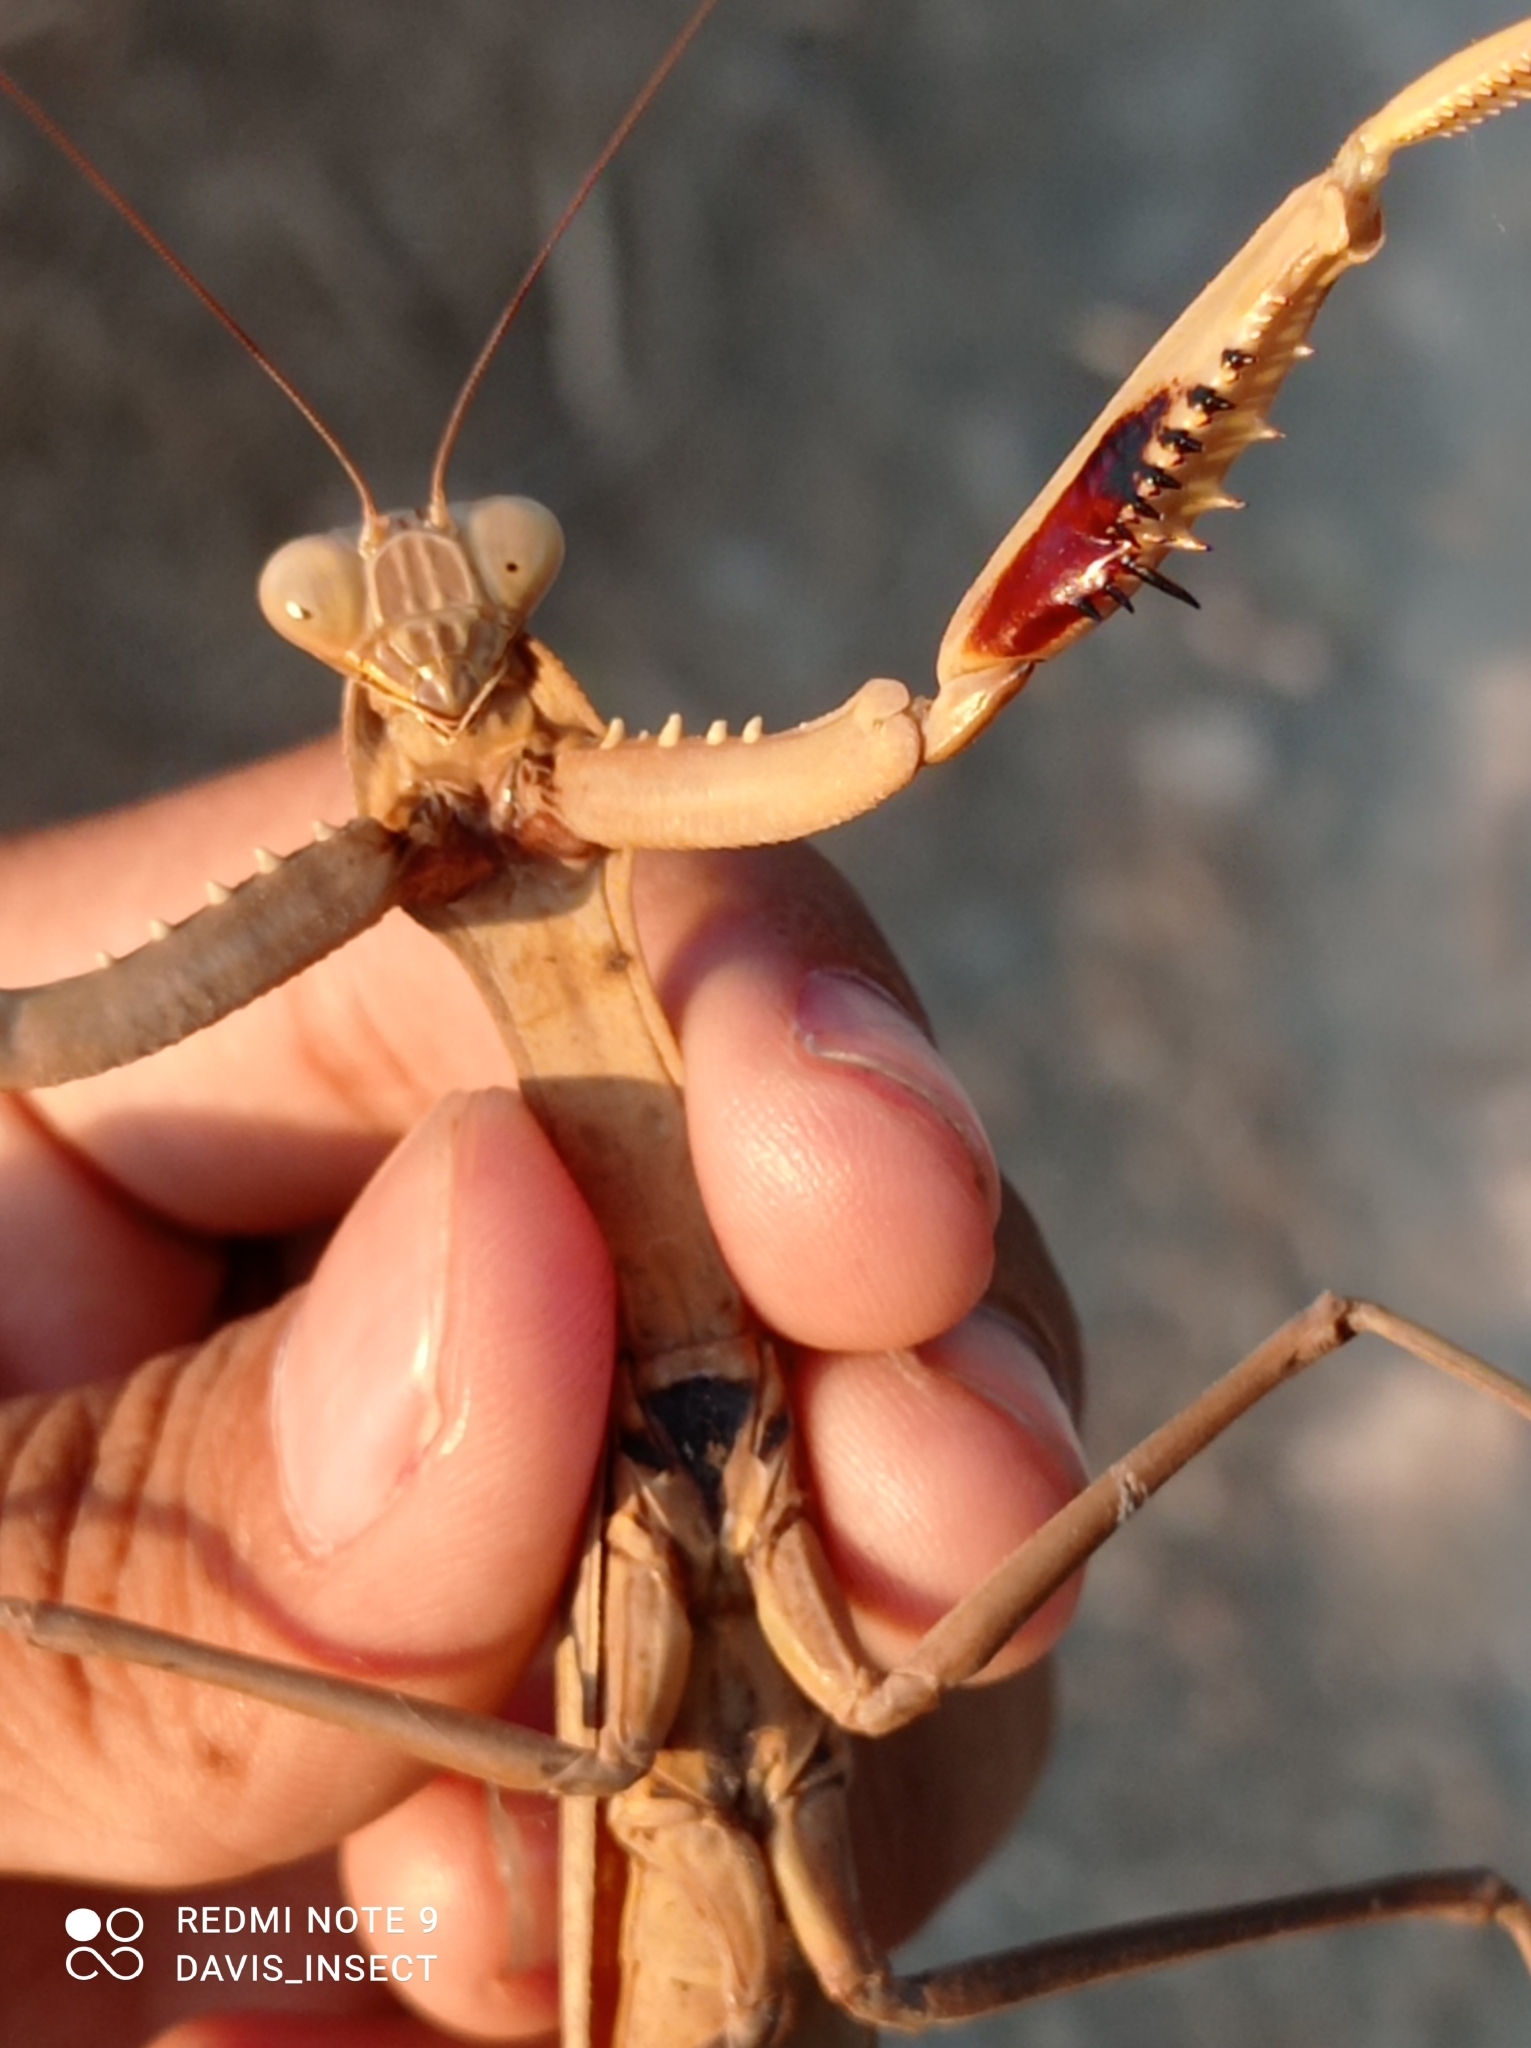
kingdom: Animalia
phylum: Arthropoda
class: Insecta
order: Mantodea
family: Mantidae
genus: Hierodula
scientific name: Hierodula timorensis
